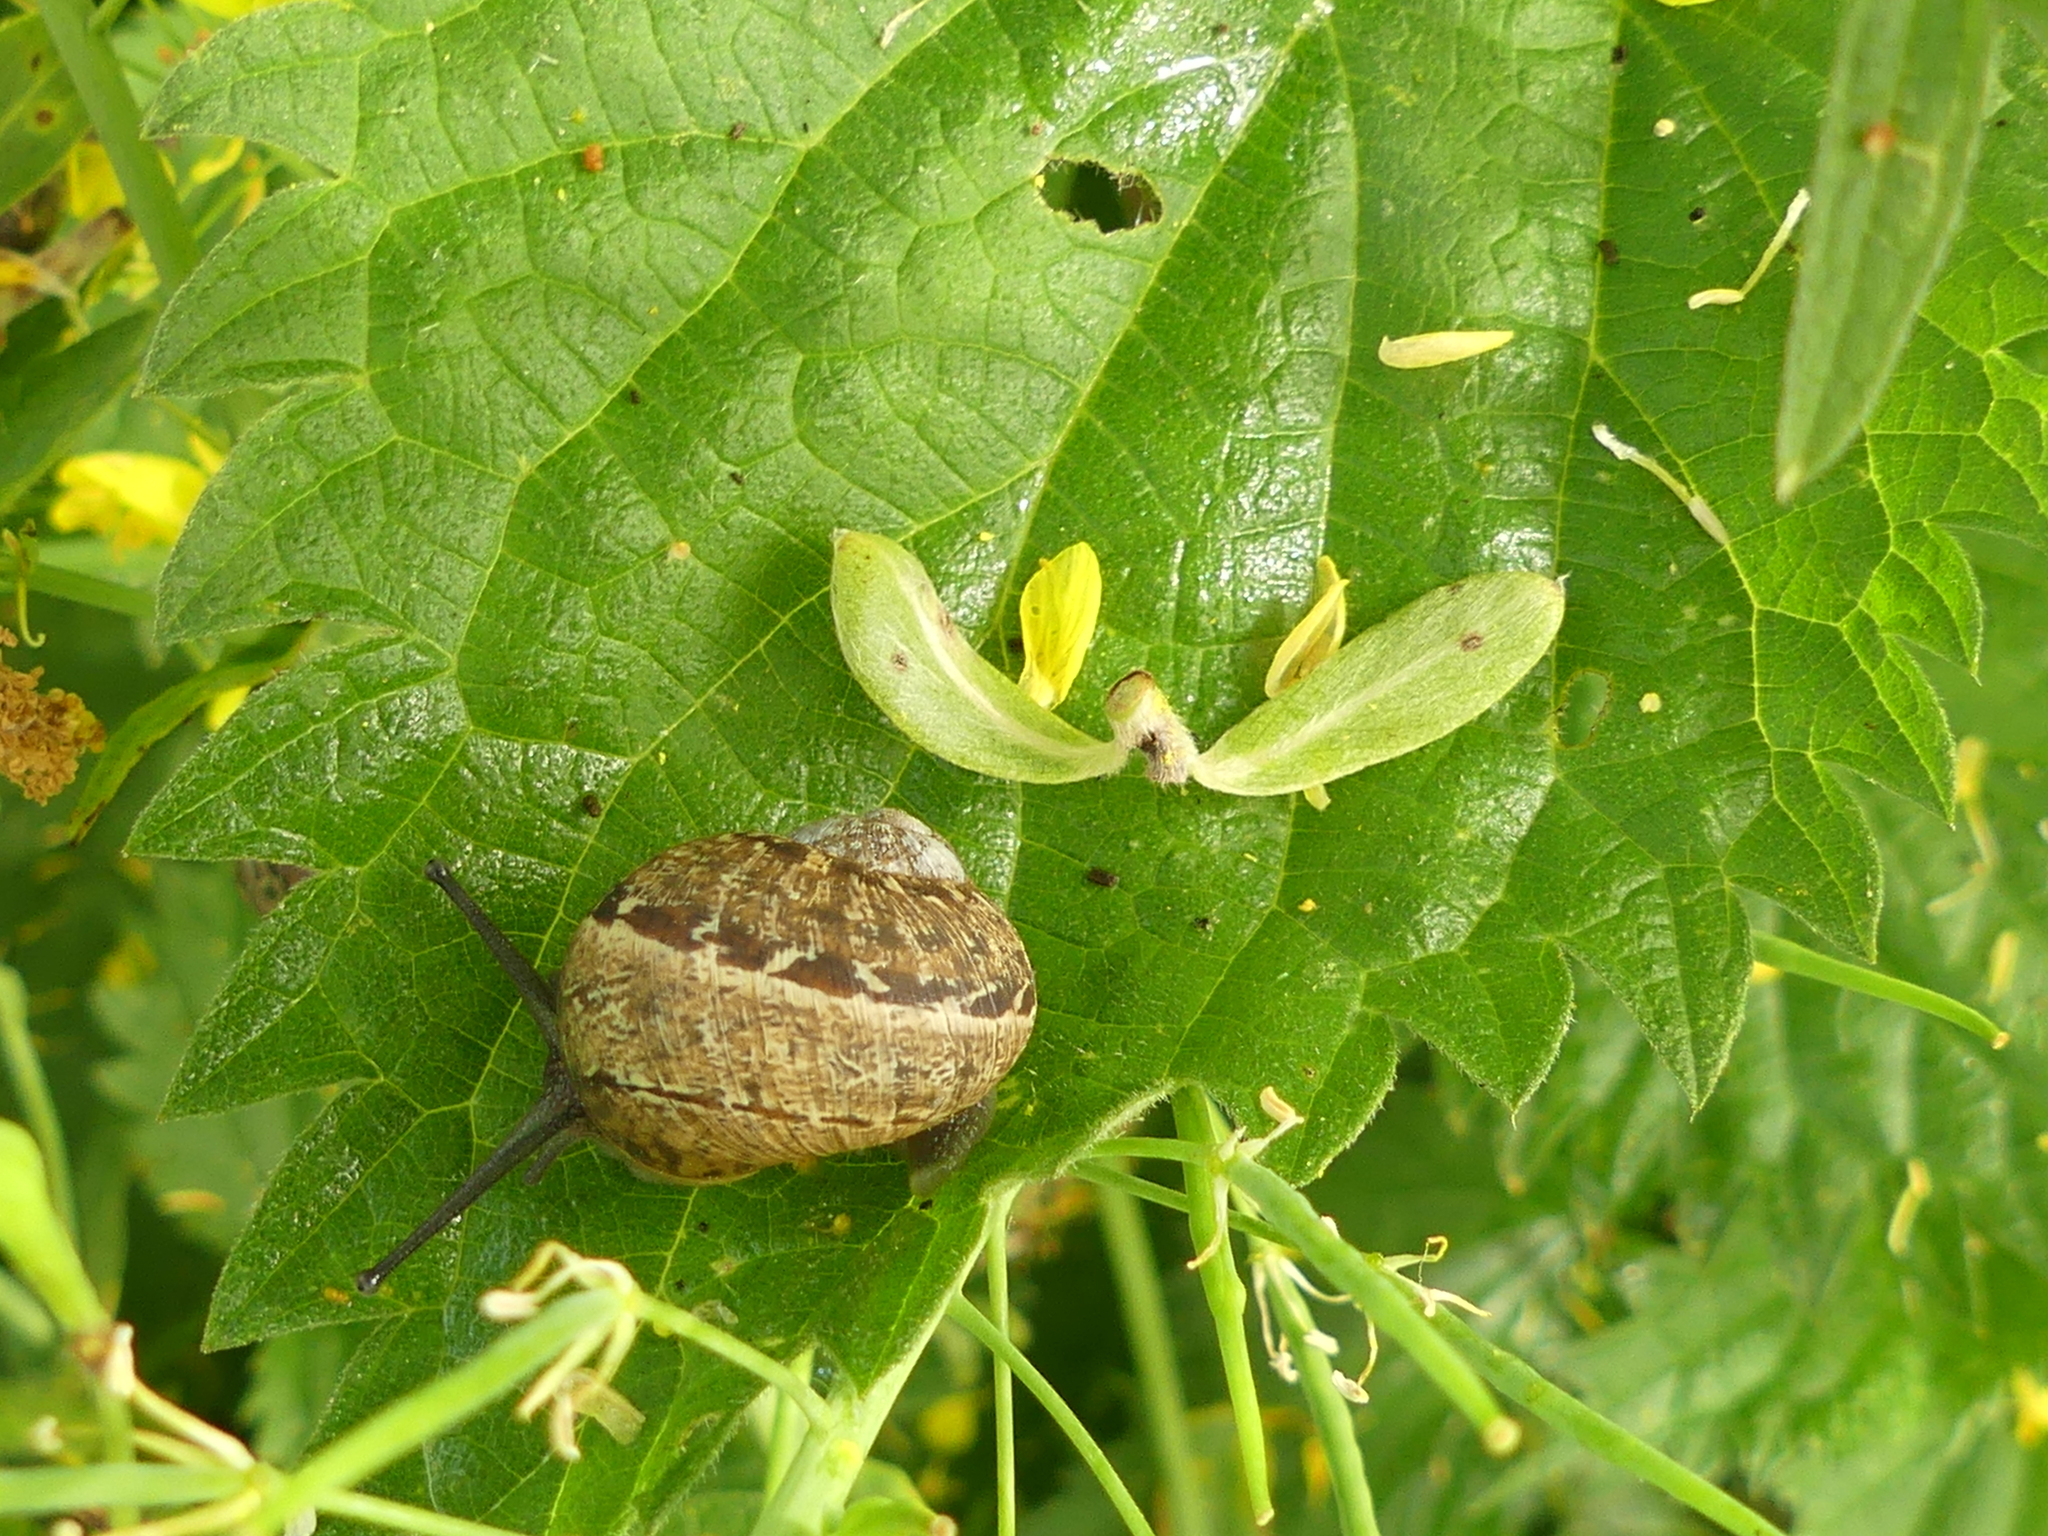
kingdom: Animalia
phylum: Mollusca
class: Gastropoda
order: Stylommatophora
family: Helicidae
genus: Cornu
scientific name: Cornu aspersum
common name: Brown garden snail
